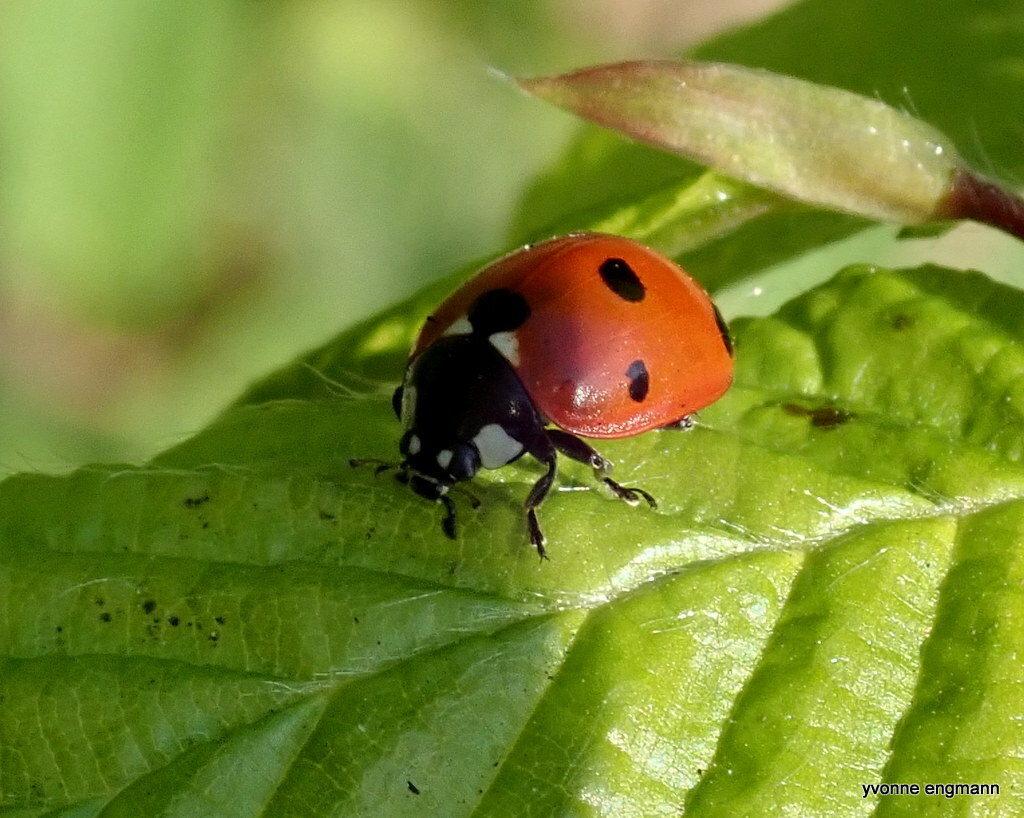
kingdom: Animalia
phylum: Arthropoda
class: Insecta
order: Coleoptera
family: Coccinellidae
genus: Coccinella
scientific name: Coccinella septempunctata
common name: Sevenspotted lady beetle
